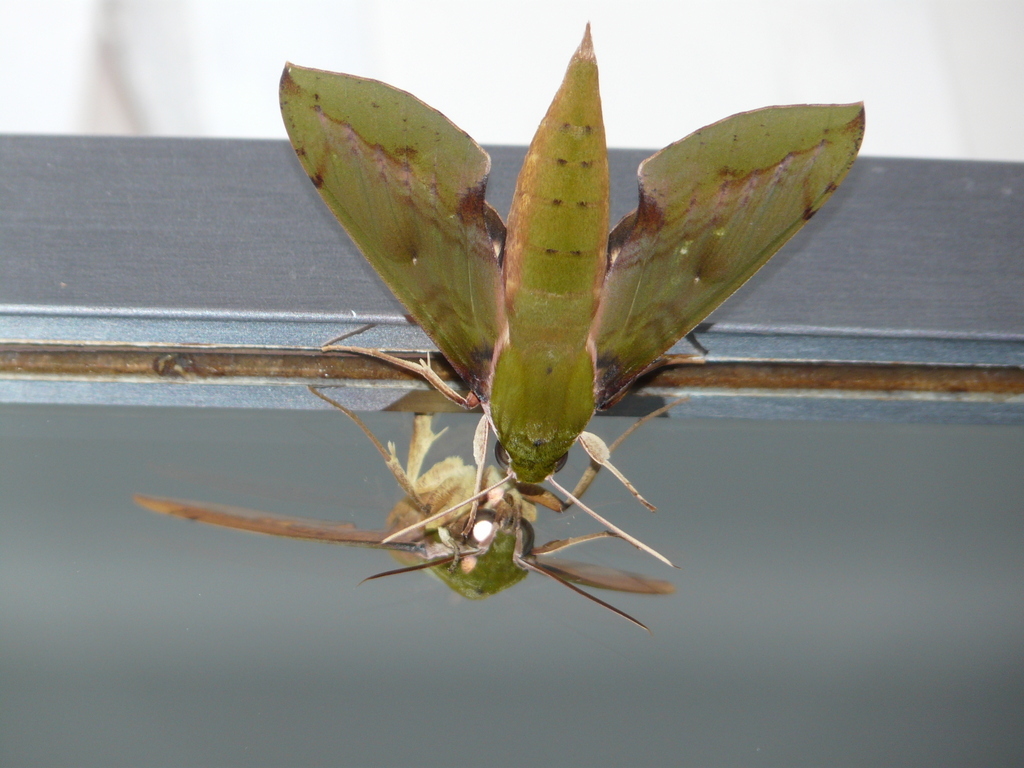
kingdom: Animalia
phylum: Arthropoda
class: Insecta
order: Lepidoptera
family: Sphingidae
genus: Xylophanes
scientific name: Xylophanes chiron
